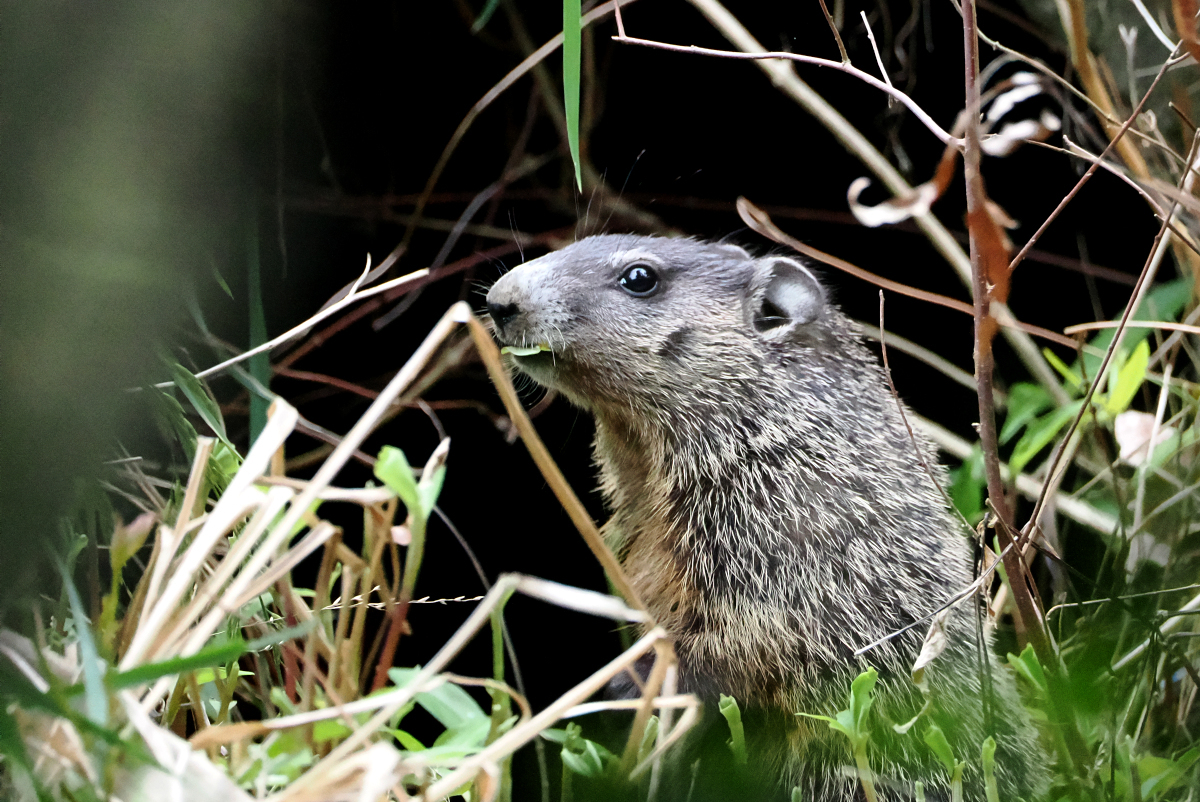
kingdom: Animalia
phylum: Chordata
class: Mammalia
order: Rodentia
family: Sciuridae
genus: Marmota
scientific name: Marmota monax
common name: Groundhog
